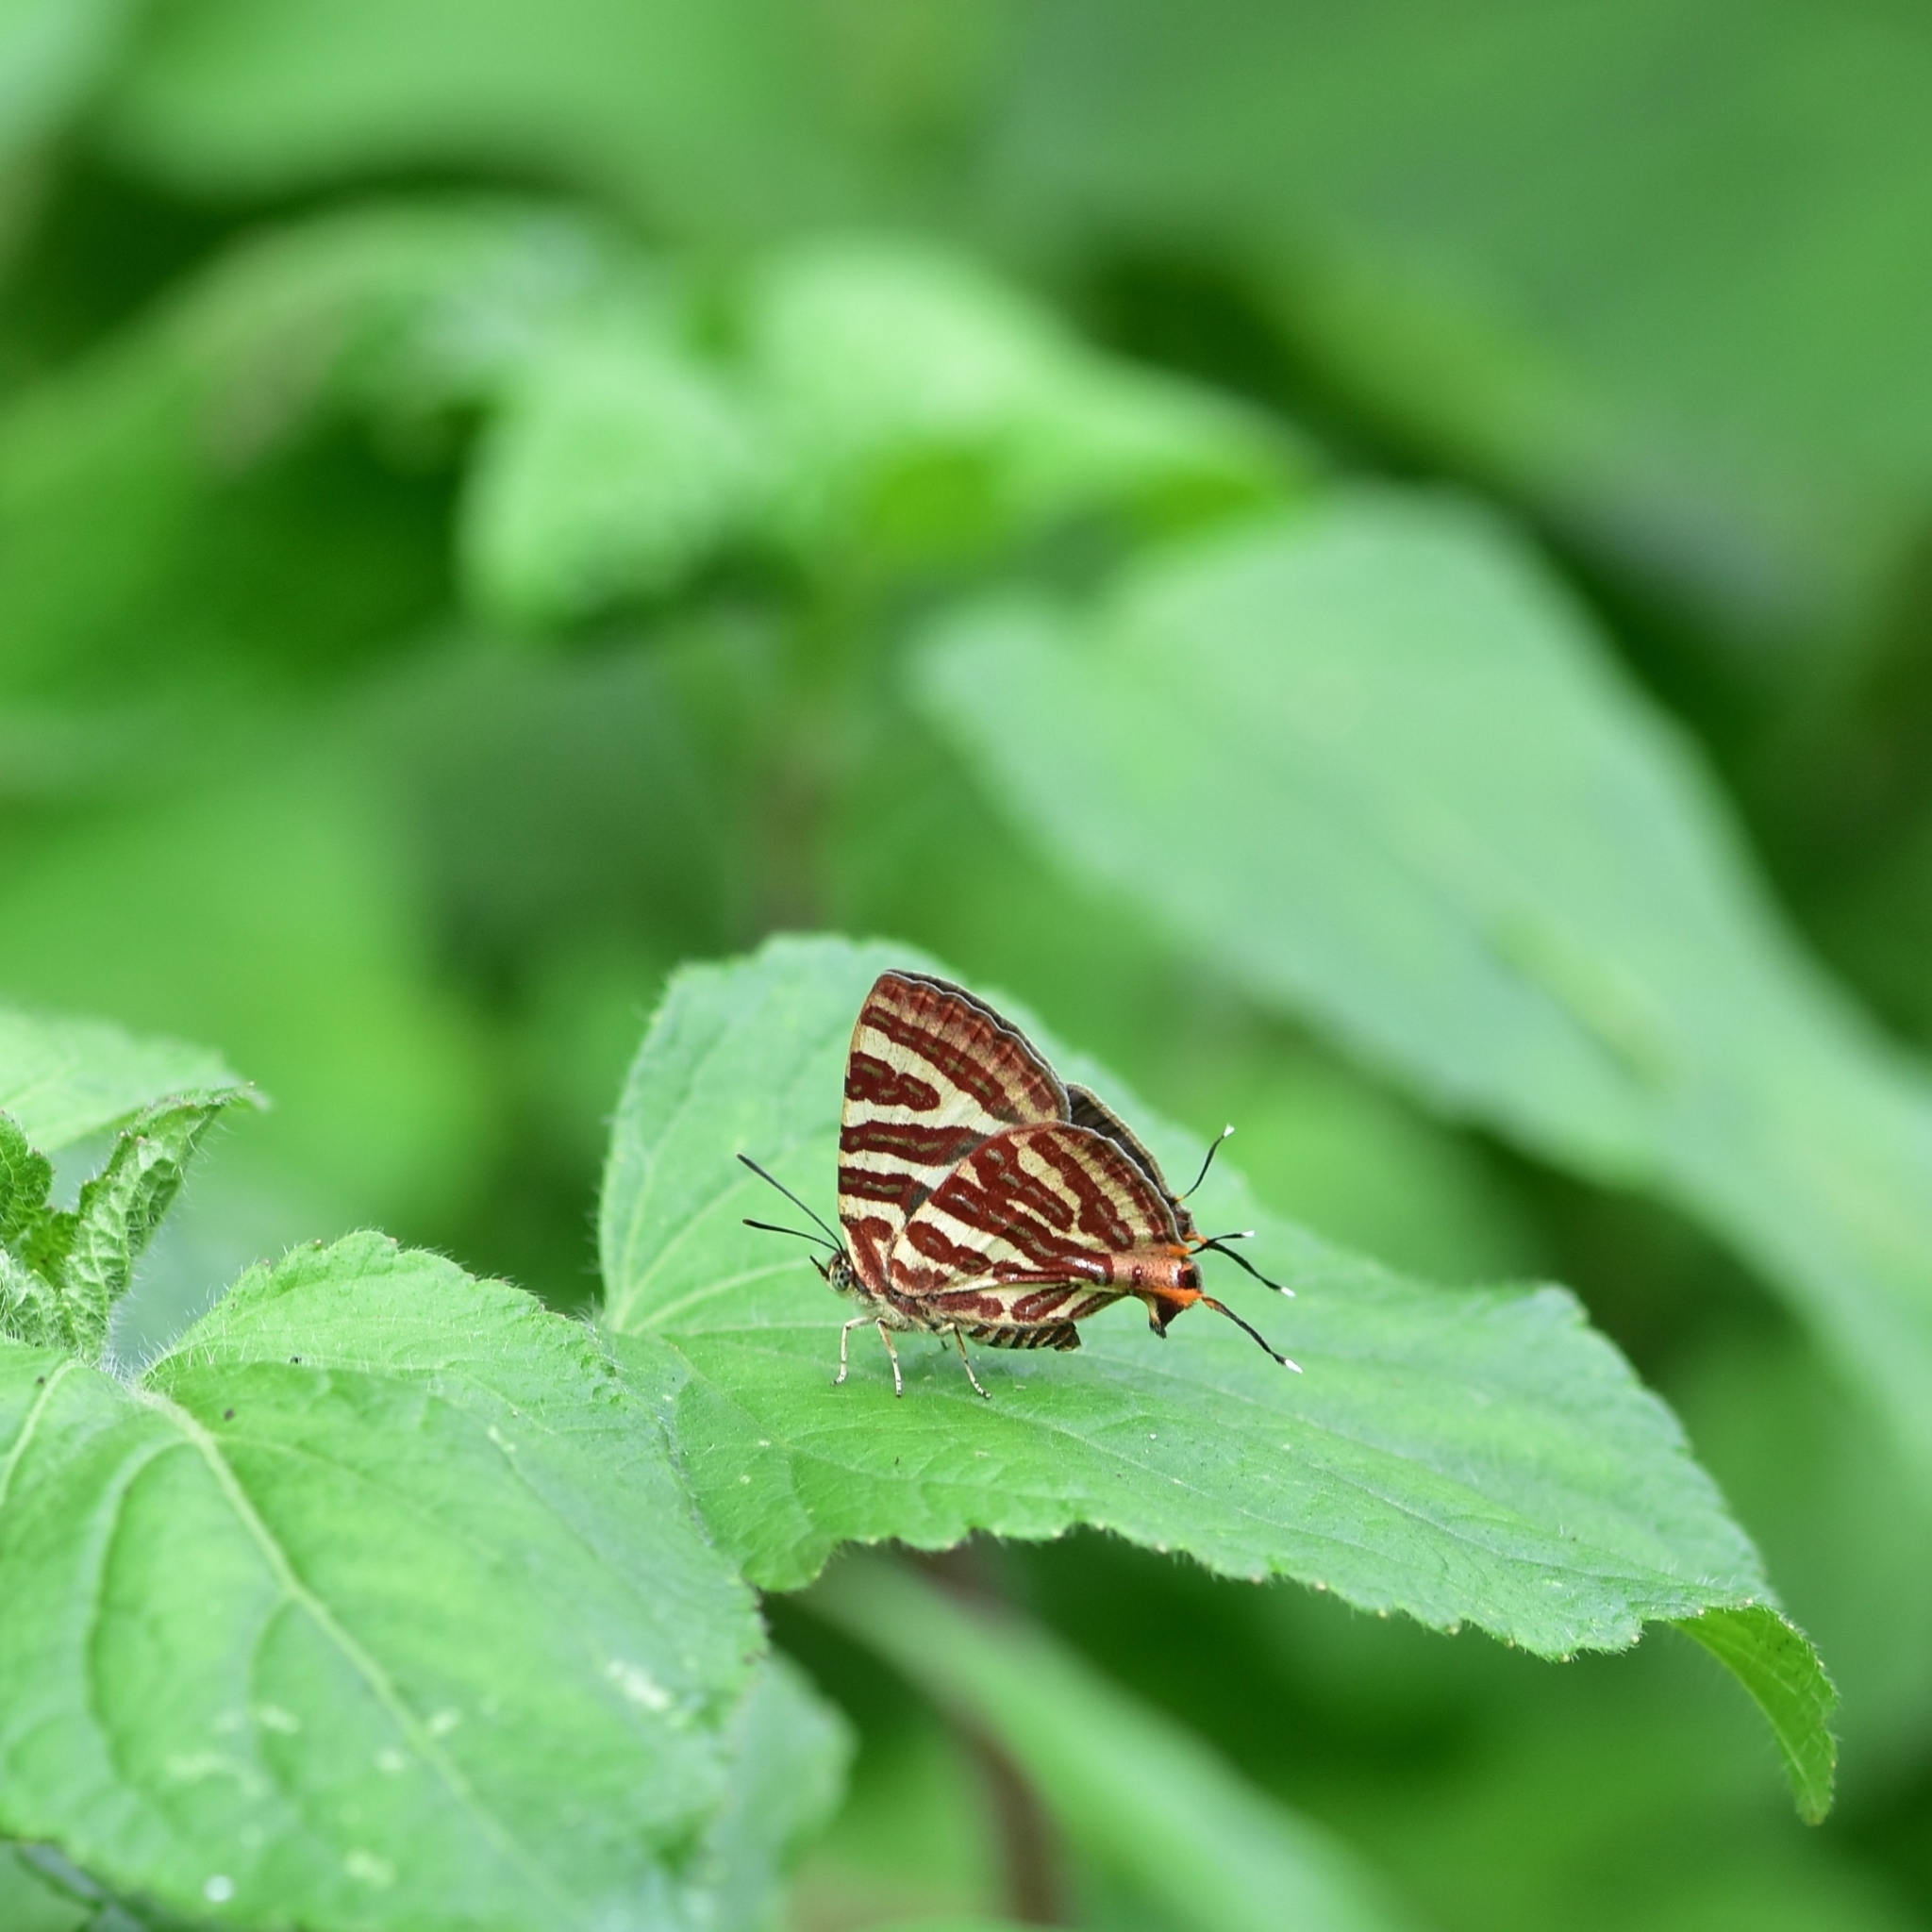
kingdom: Animalia
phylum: Arthropoda
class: Insecta
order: Lepidoptera
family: Lycaenidae
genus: Cigaritis
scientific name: Cigaritis lohita
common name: Long-banded silverline
